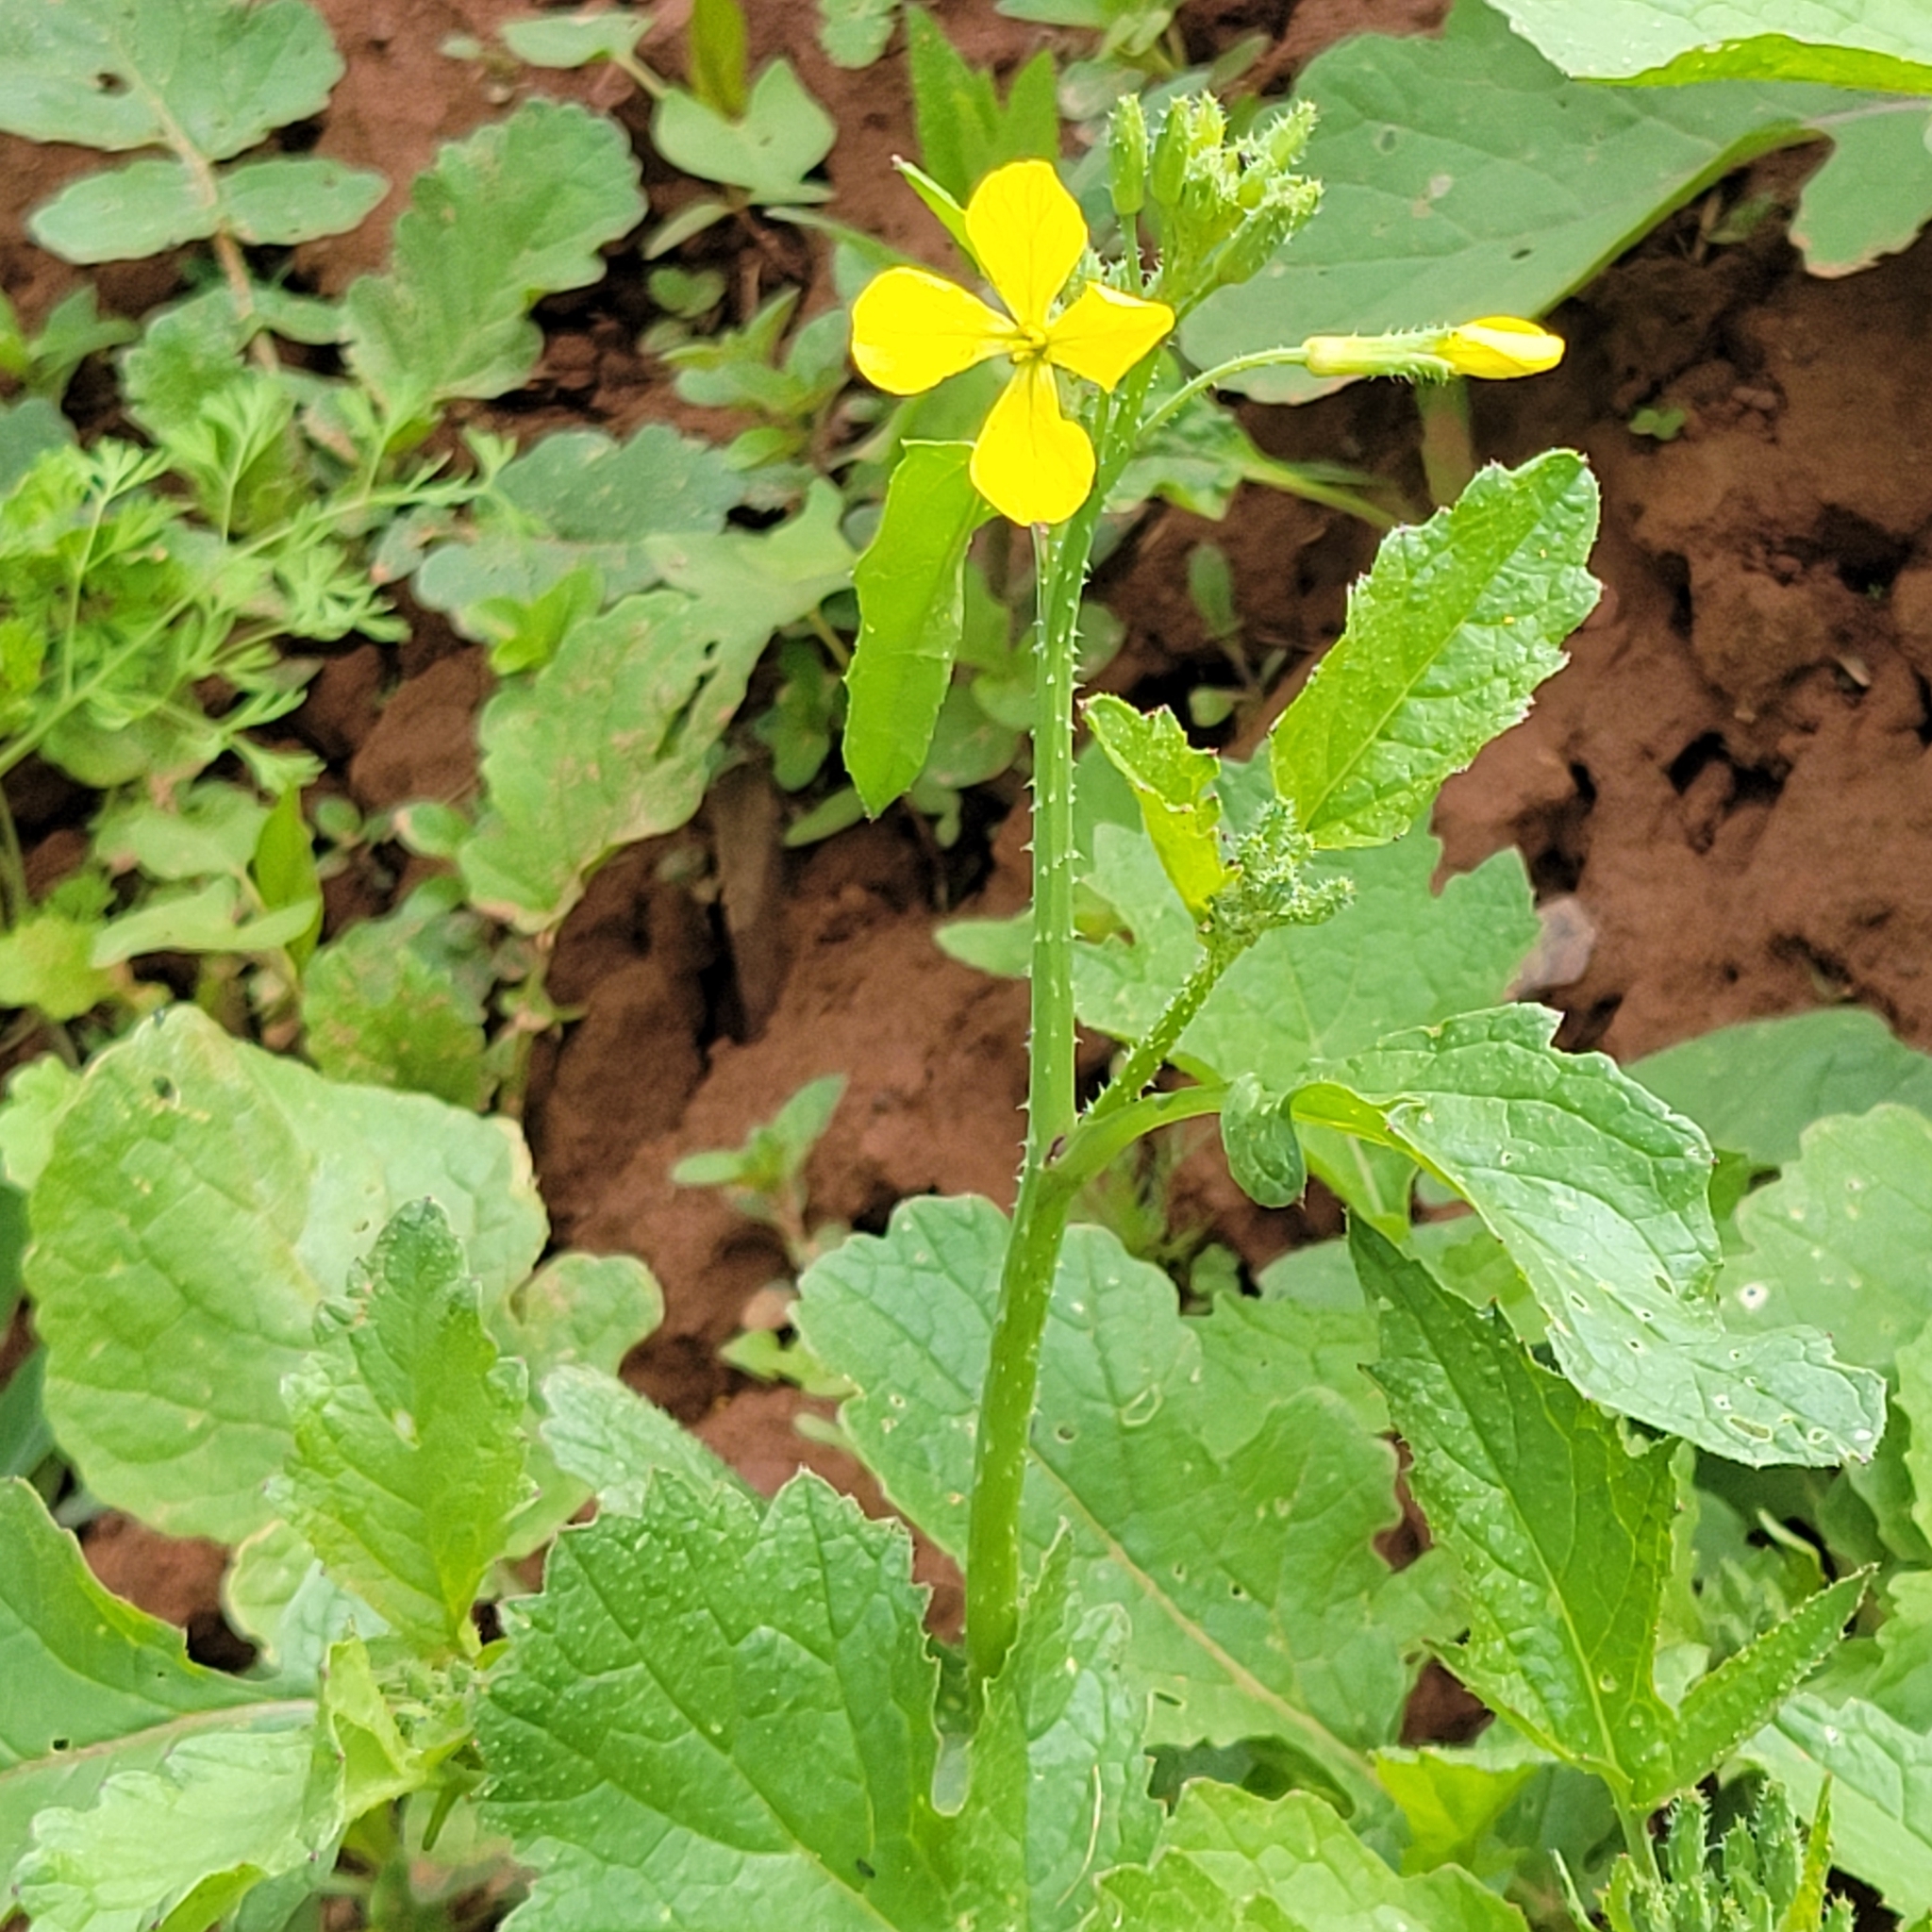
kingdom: Plantae
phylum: Tracheophyta
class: Magnoliopsida
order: Brassicales
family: Brassicaceae
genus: Raphanus
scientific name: Raphanus raphanistrum
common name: Wild radish
